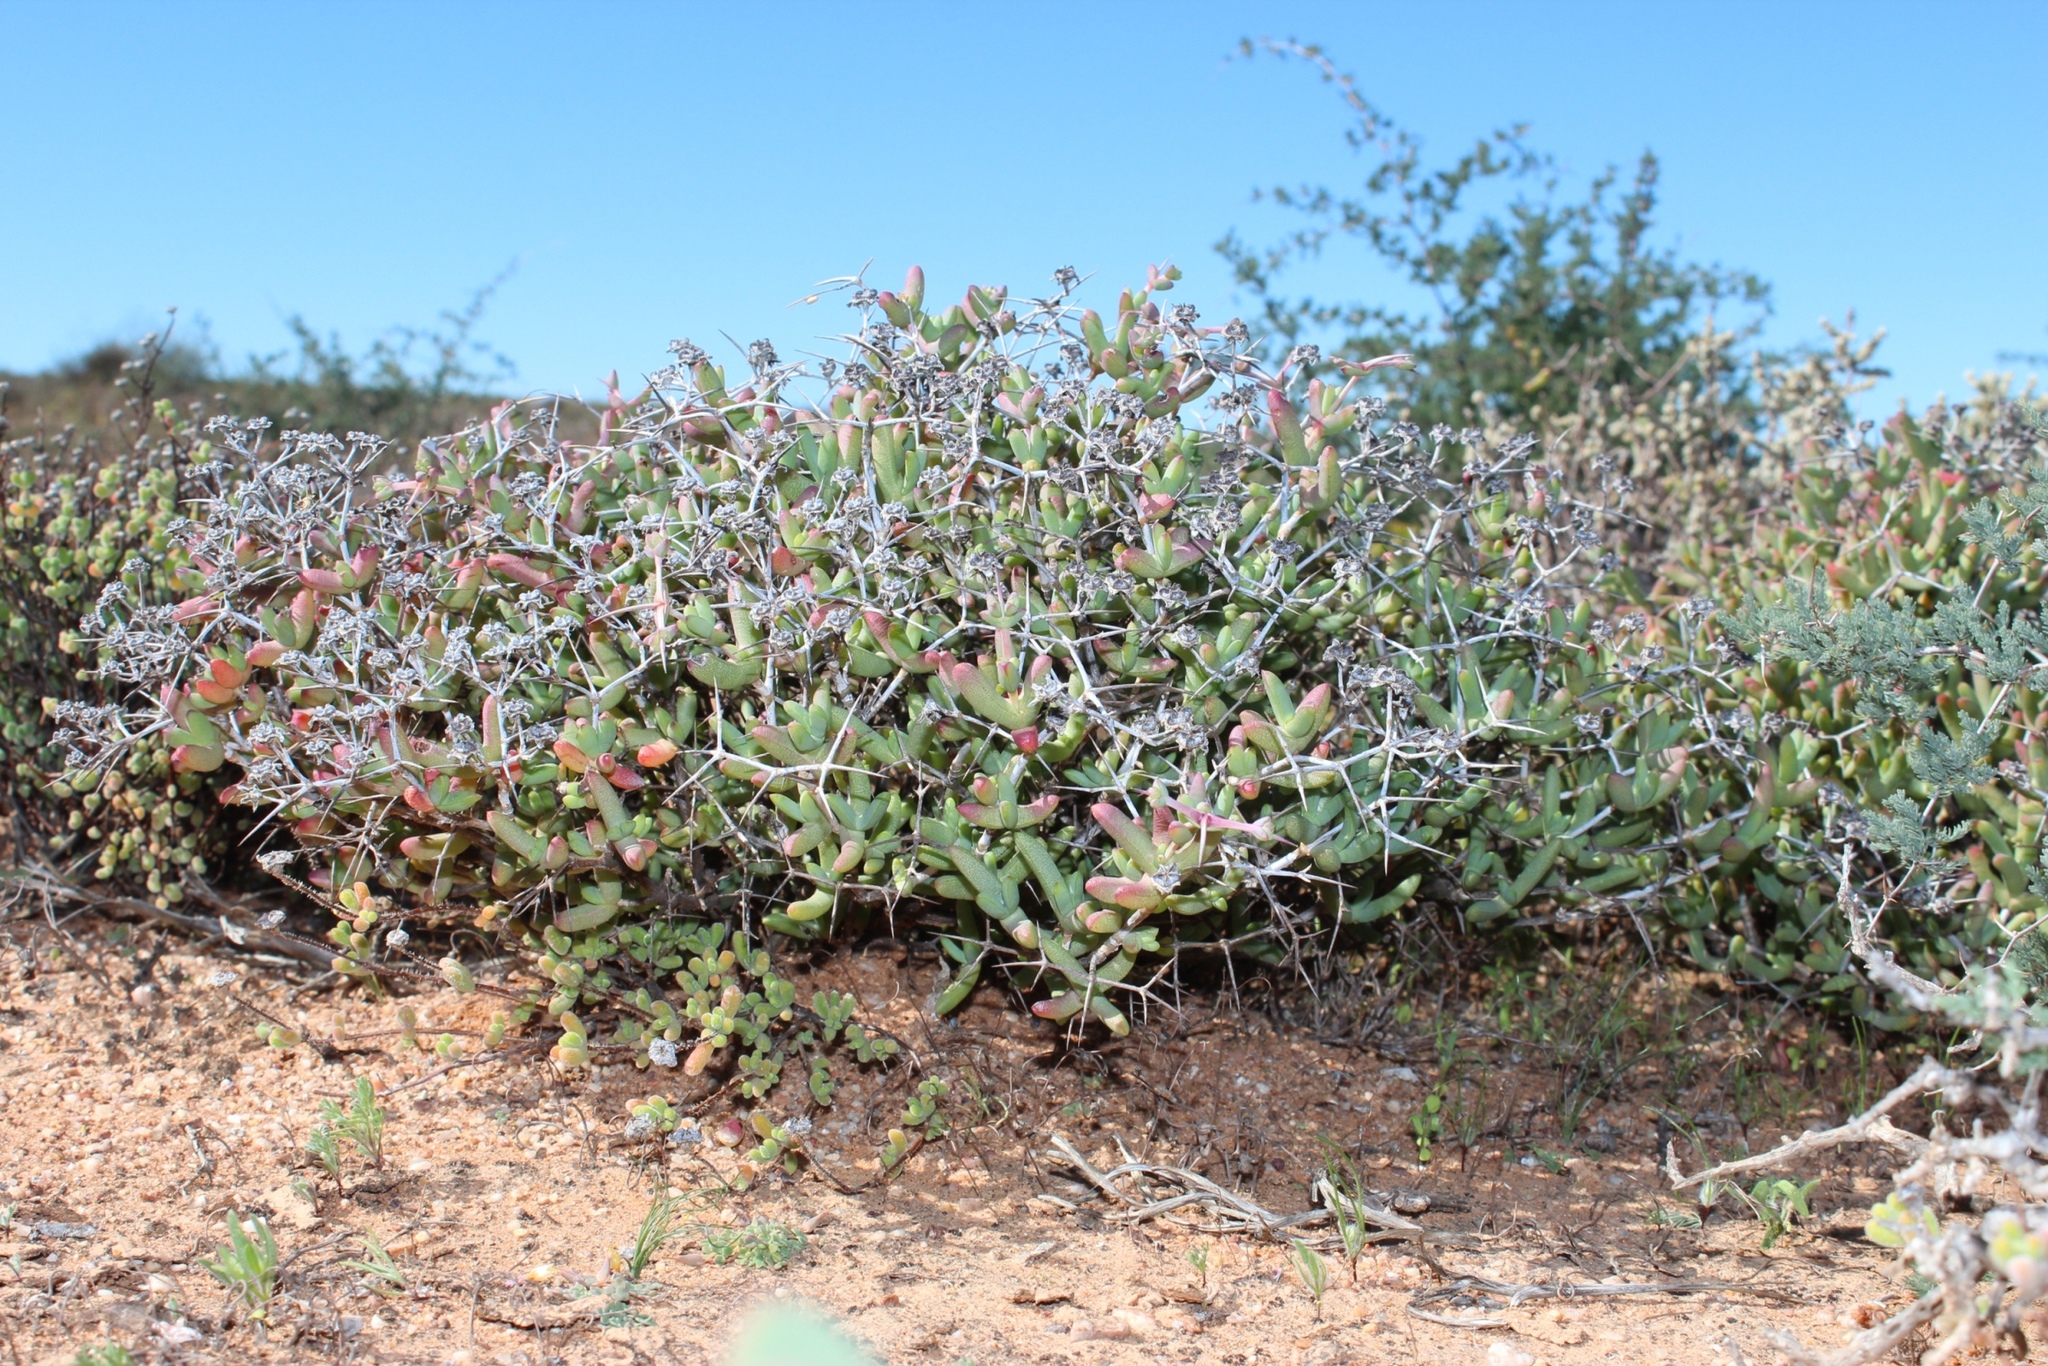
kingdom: Plantae
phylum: Tracheophyta
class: Magnoliopsida
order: Caryophyllales
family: Aizoaceae
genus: Ruschia
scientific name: Ruschia spinosa
